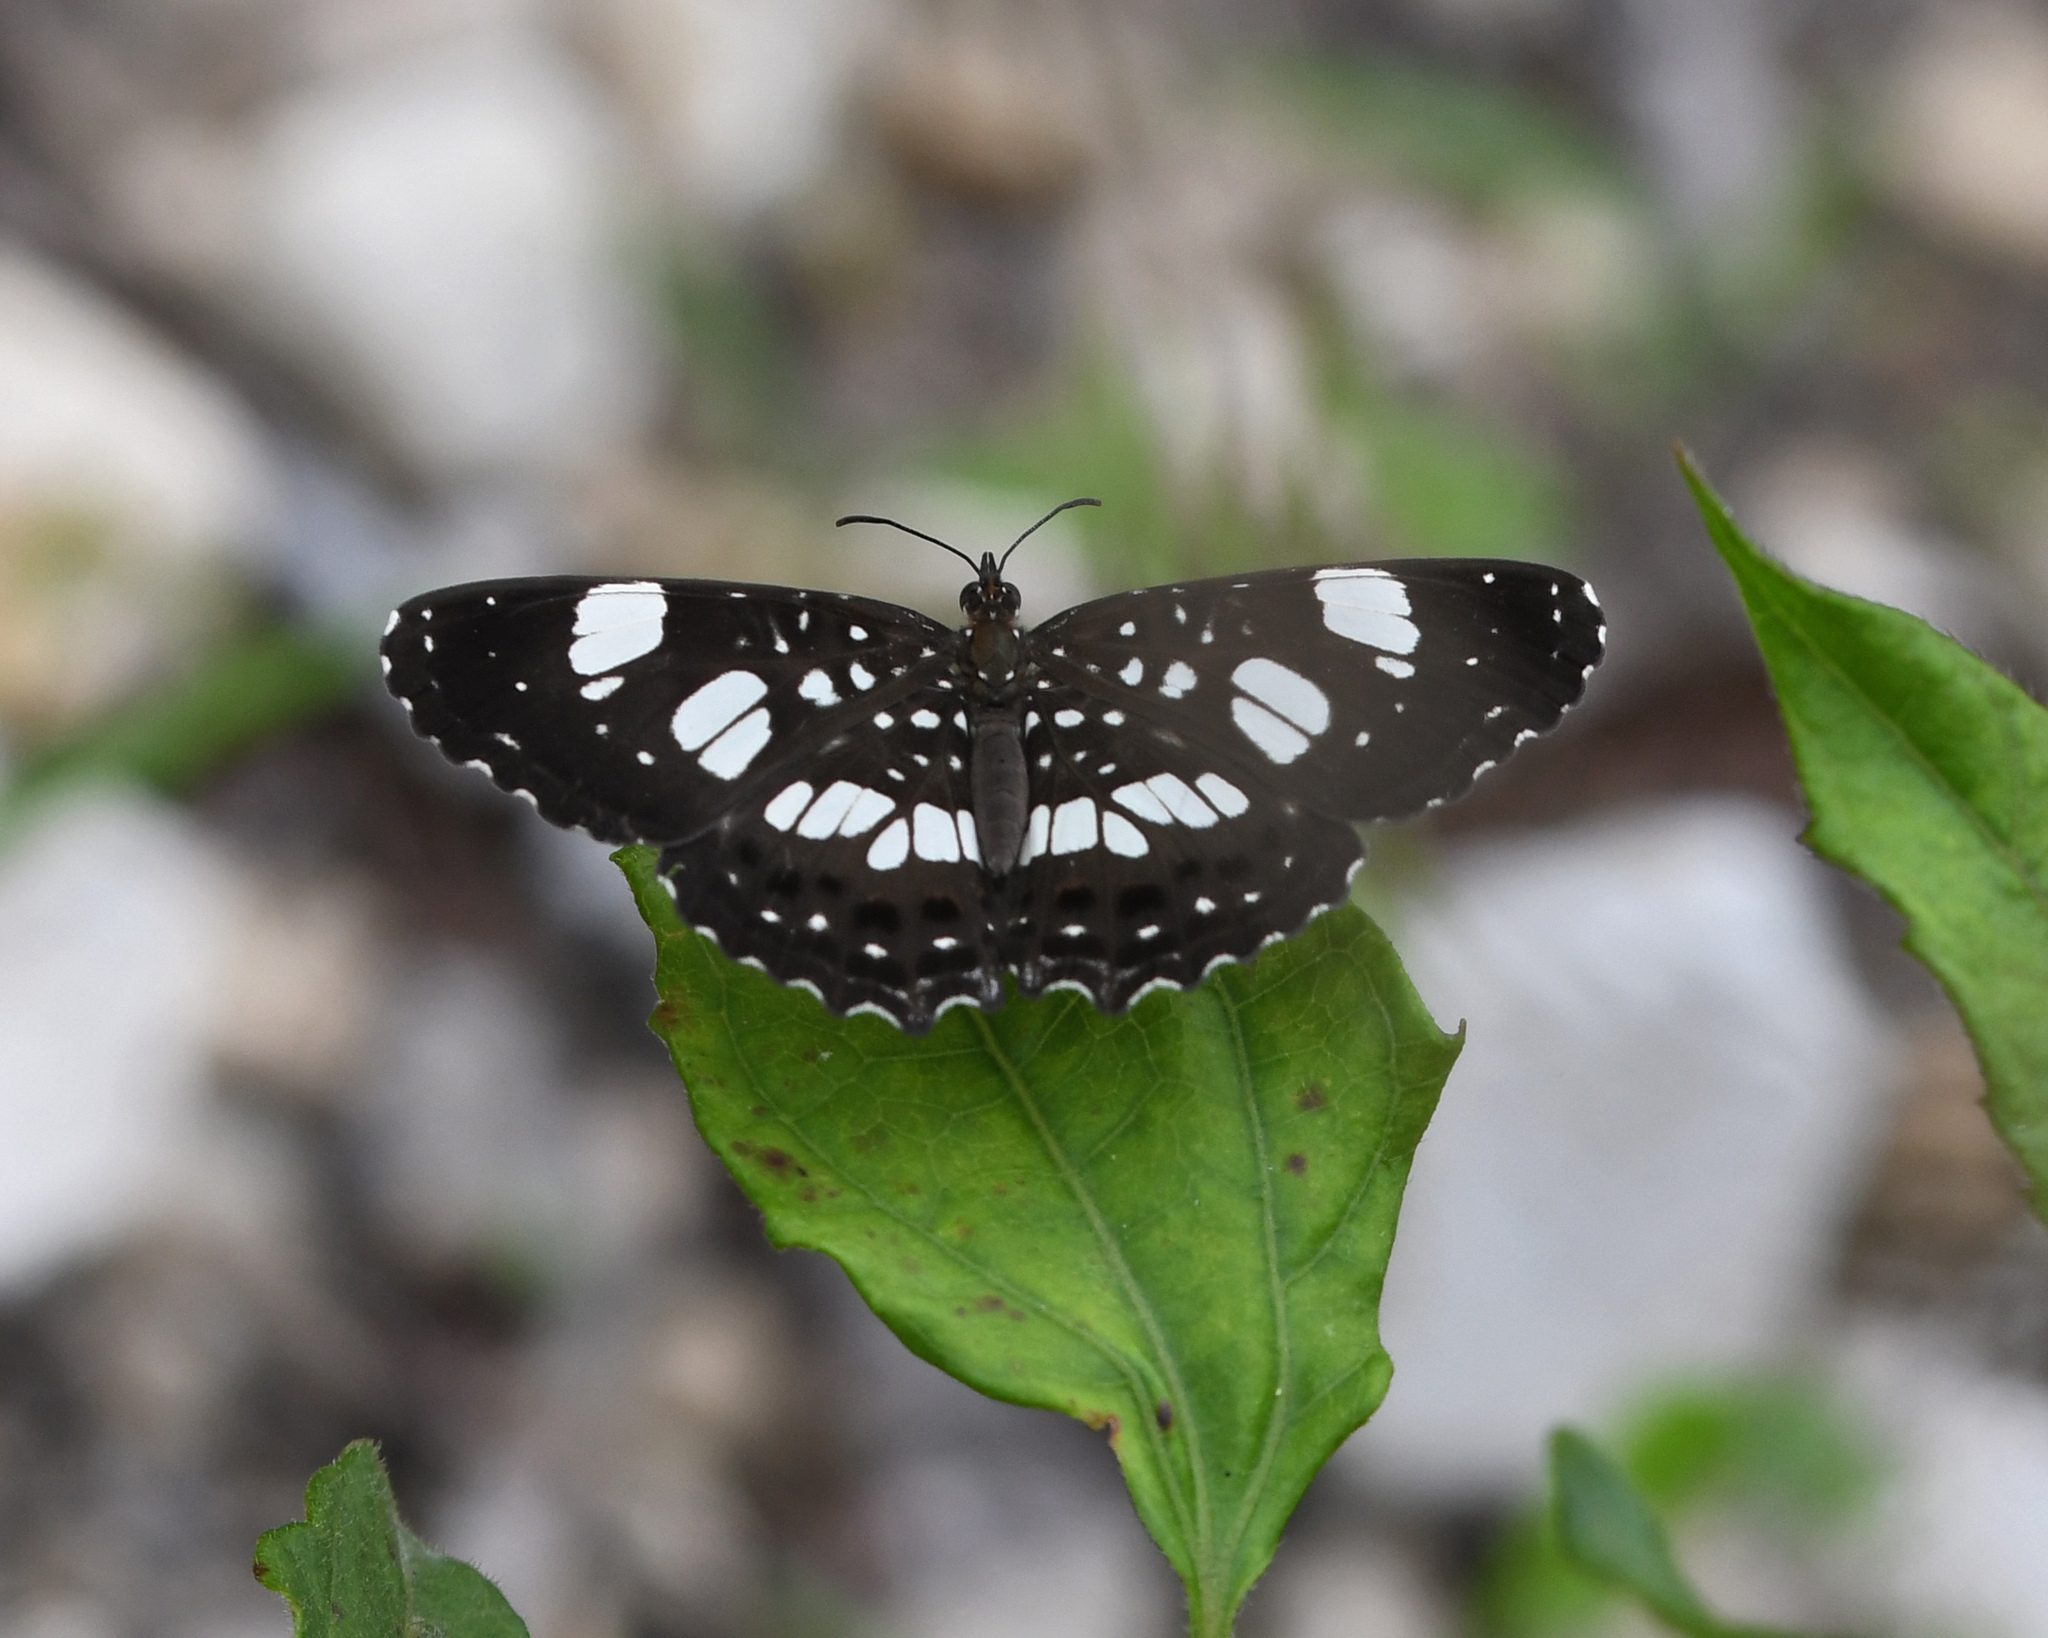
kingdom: Animalia
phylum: Arthropoda
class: Insecta
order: Lepidoptera
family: Nymphalidae
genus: Archimestra
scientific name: Archimestra teleboas
